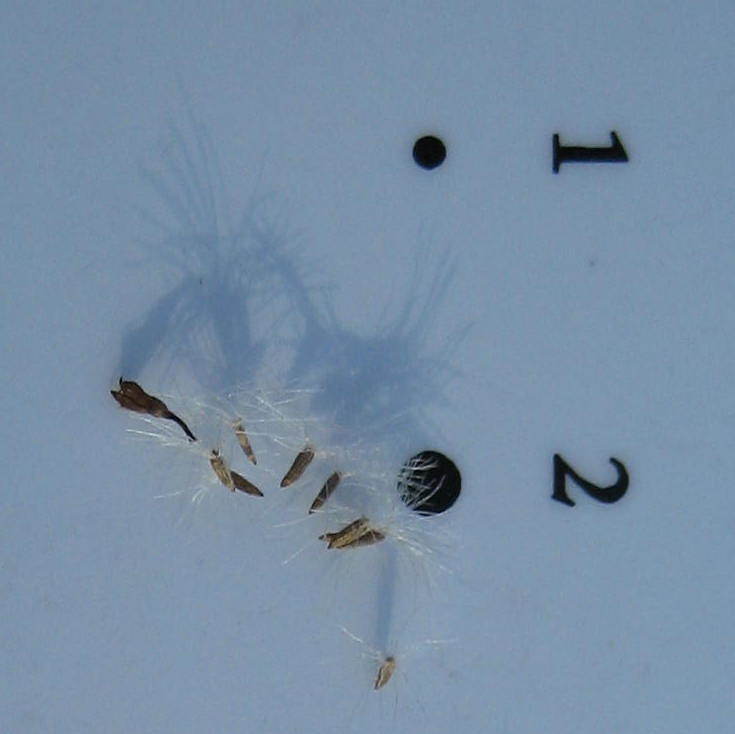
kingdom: Plantae
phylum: Tracheophyta
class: Magnoliopsida
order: Asterales
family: Asteraceae
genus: Solidago
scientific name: Solidago rugosa
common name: Rough-stemmed goldenrod
